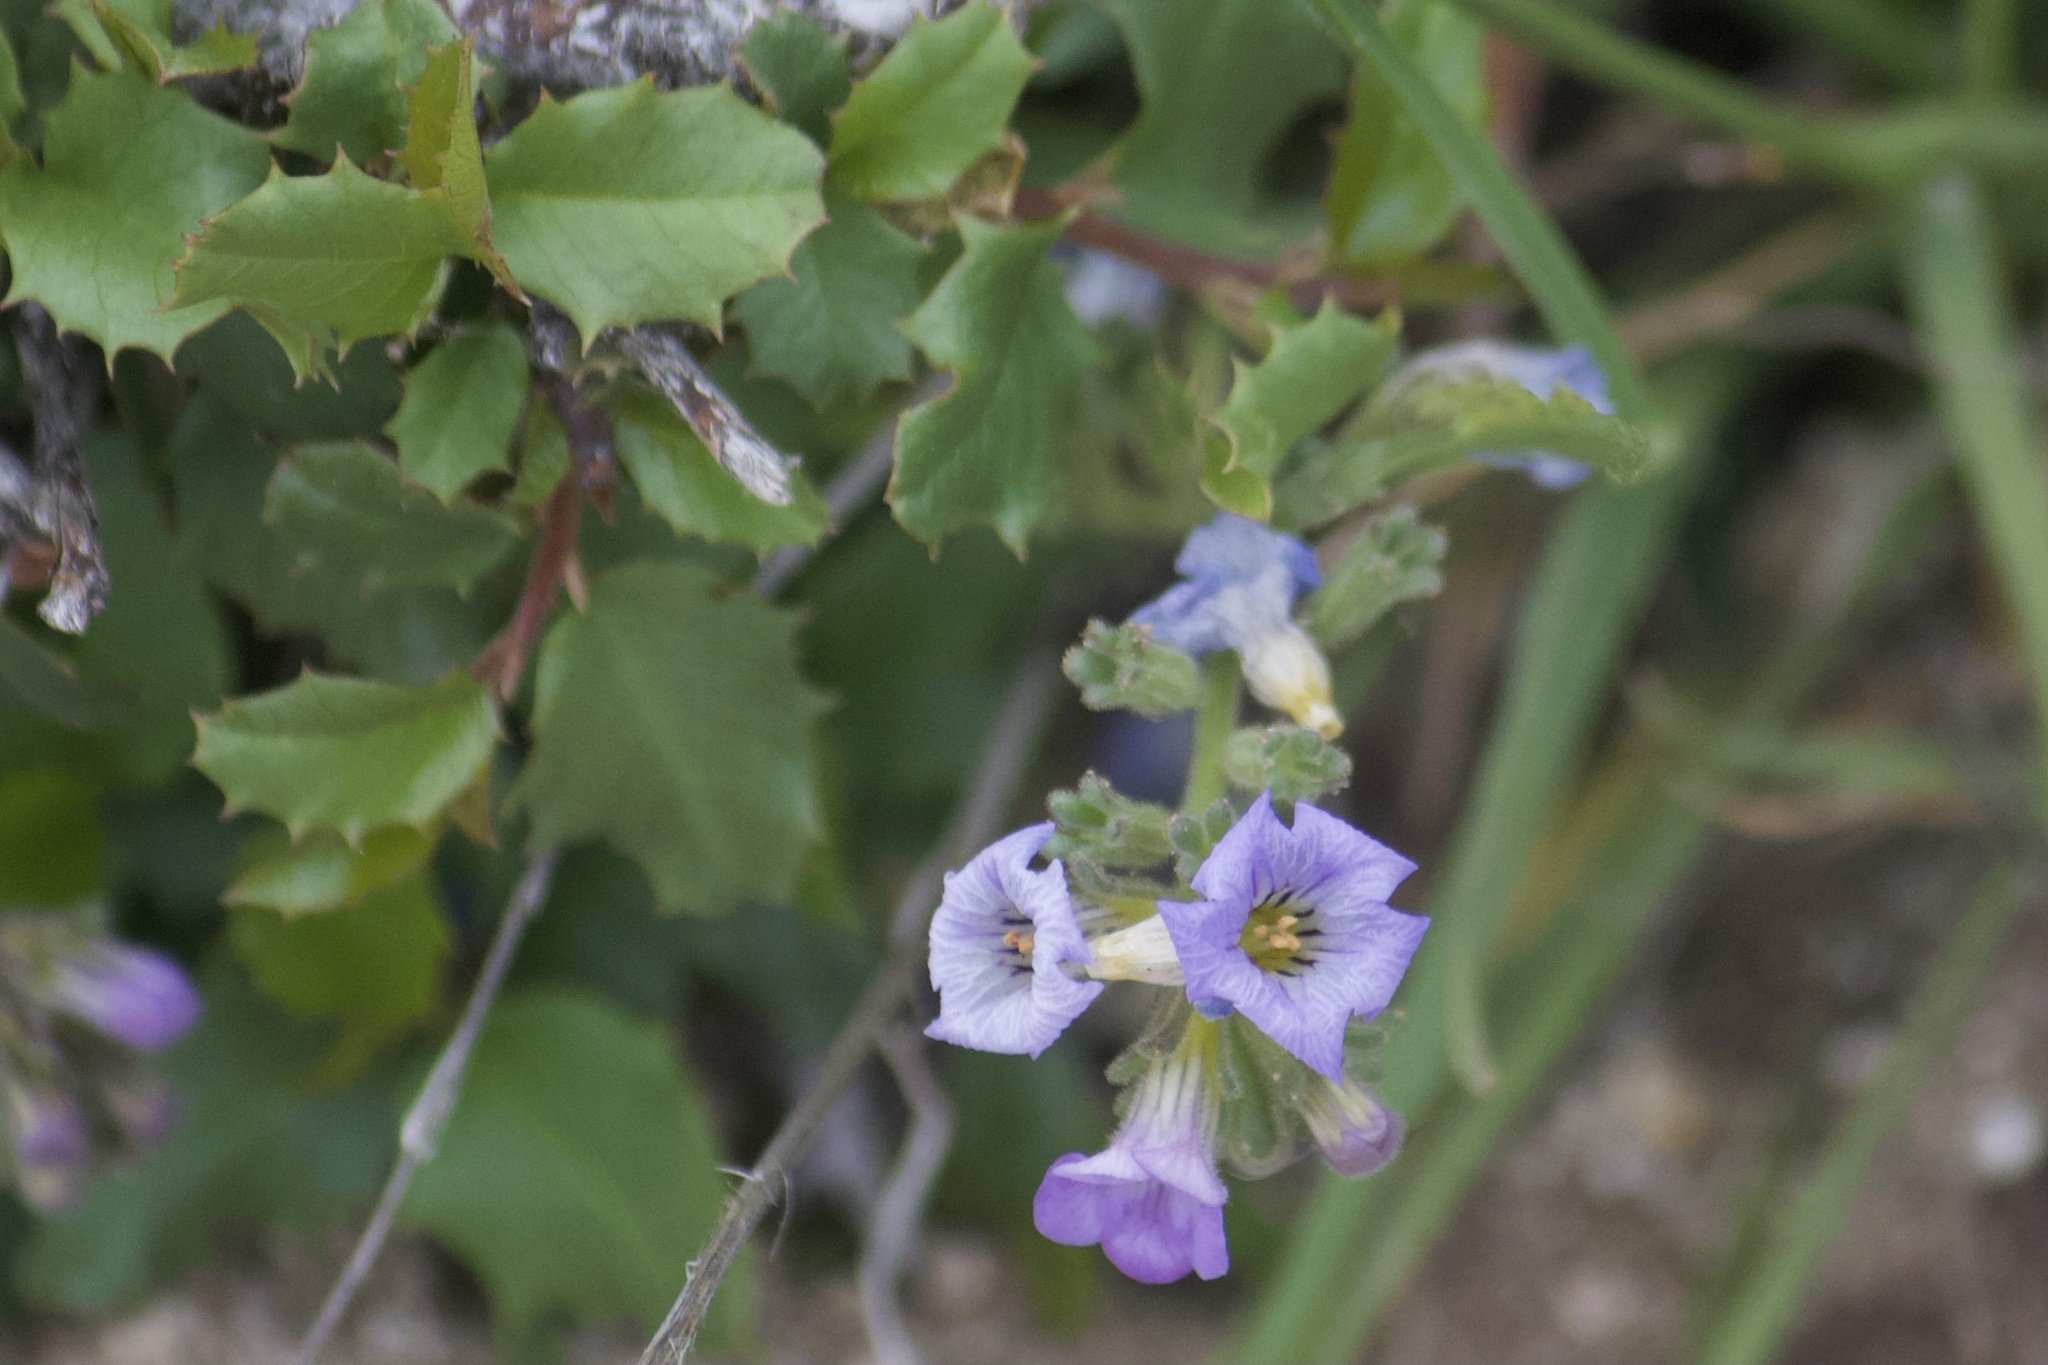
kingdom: Plantae
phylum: Tracheophyta
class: Magnoliopsida
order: Boraginales
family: Hydrophyllaceae
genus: Phacelia
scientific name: Phacelia fremontii
